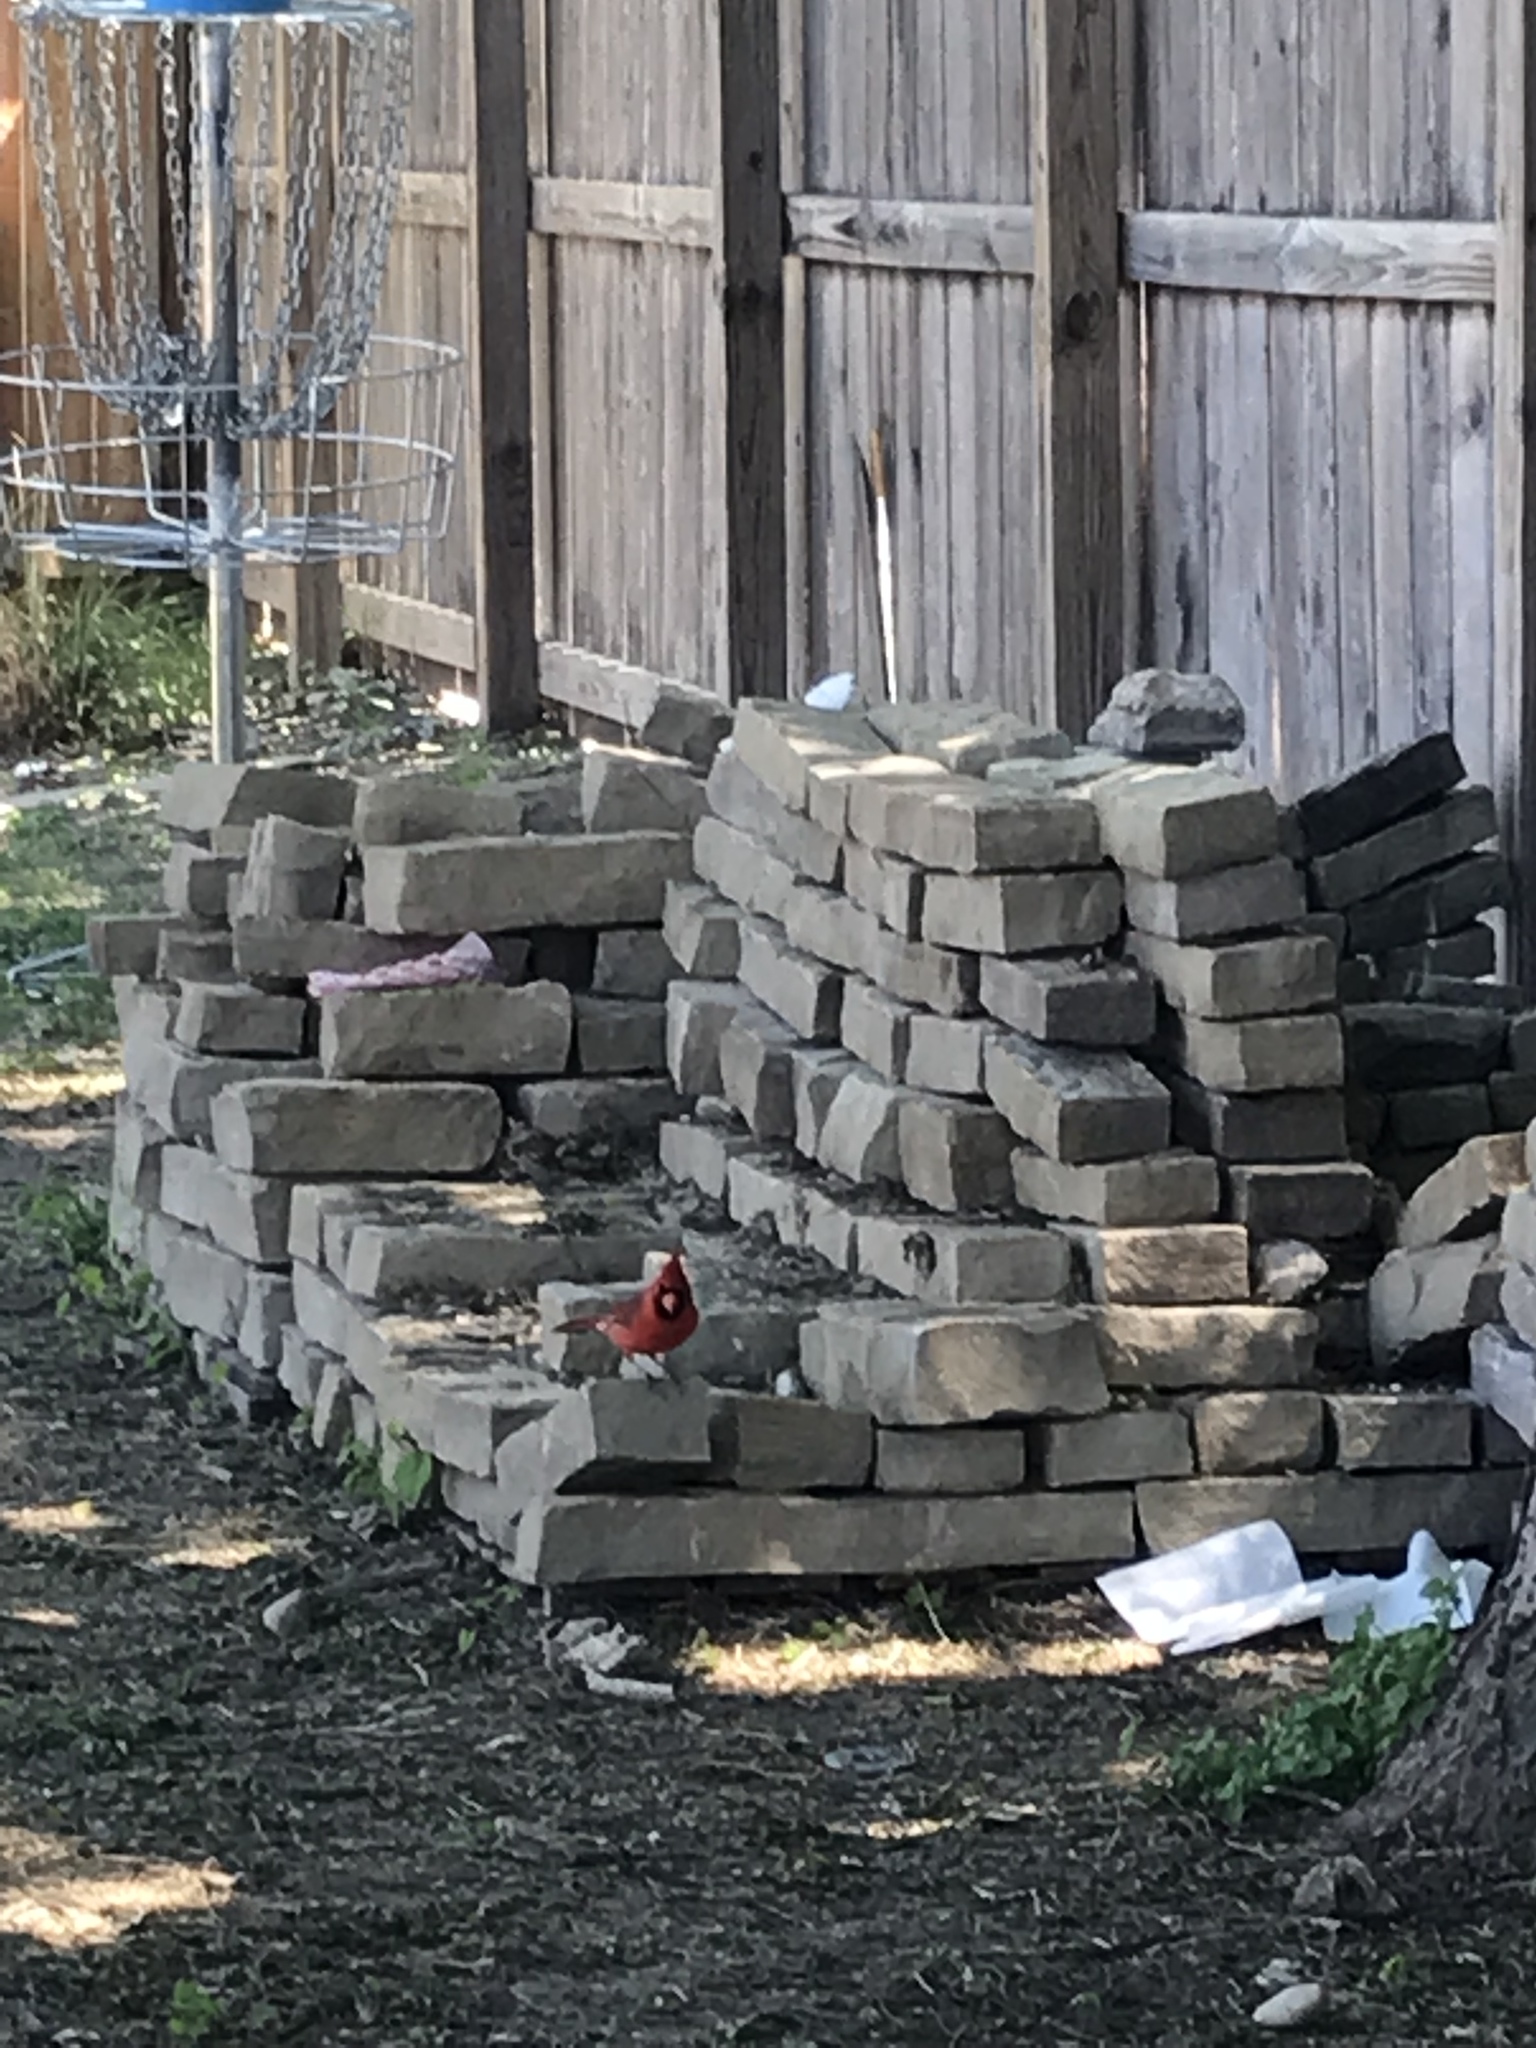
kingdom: Animalia
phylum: Chordata
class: Aves
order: Passeriformes
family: Cardinalidae
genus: Cardinalis
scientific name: Cardinalis cardinalis
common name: Northern cardinal
